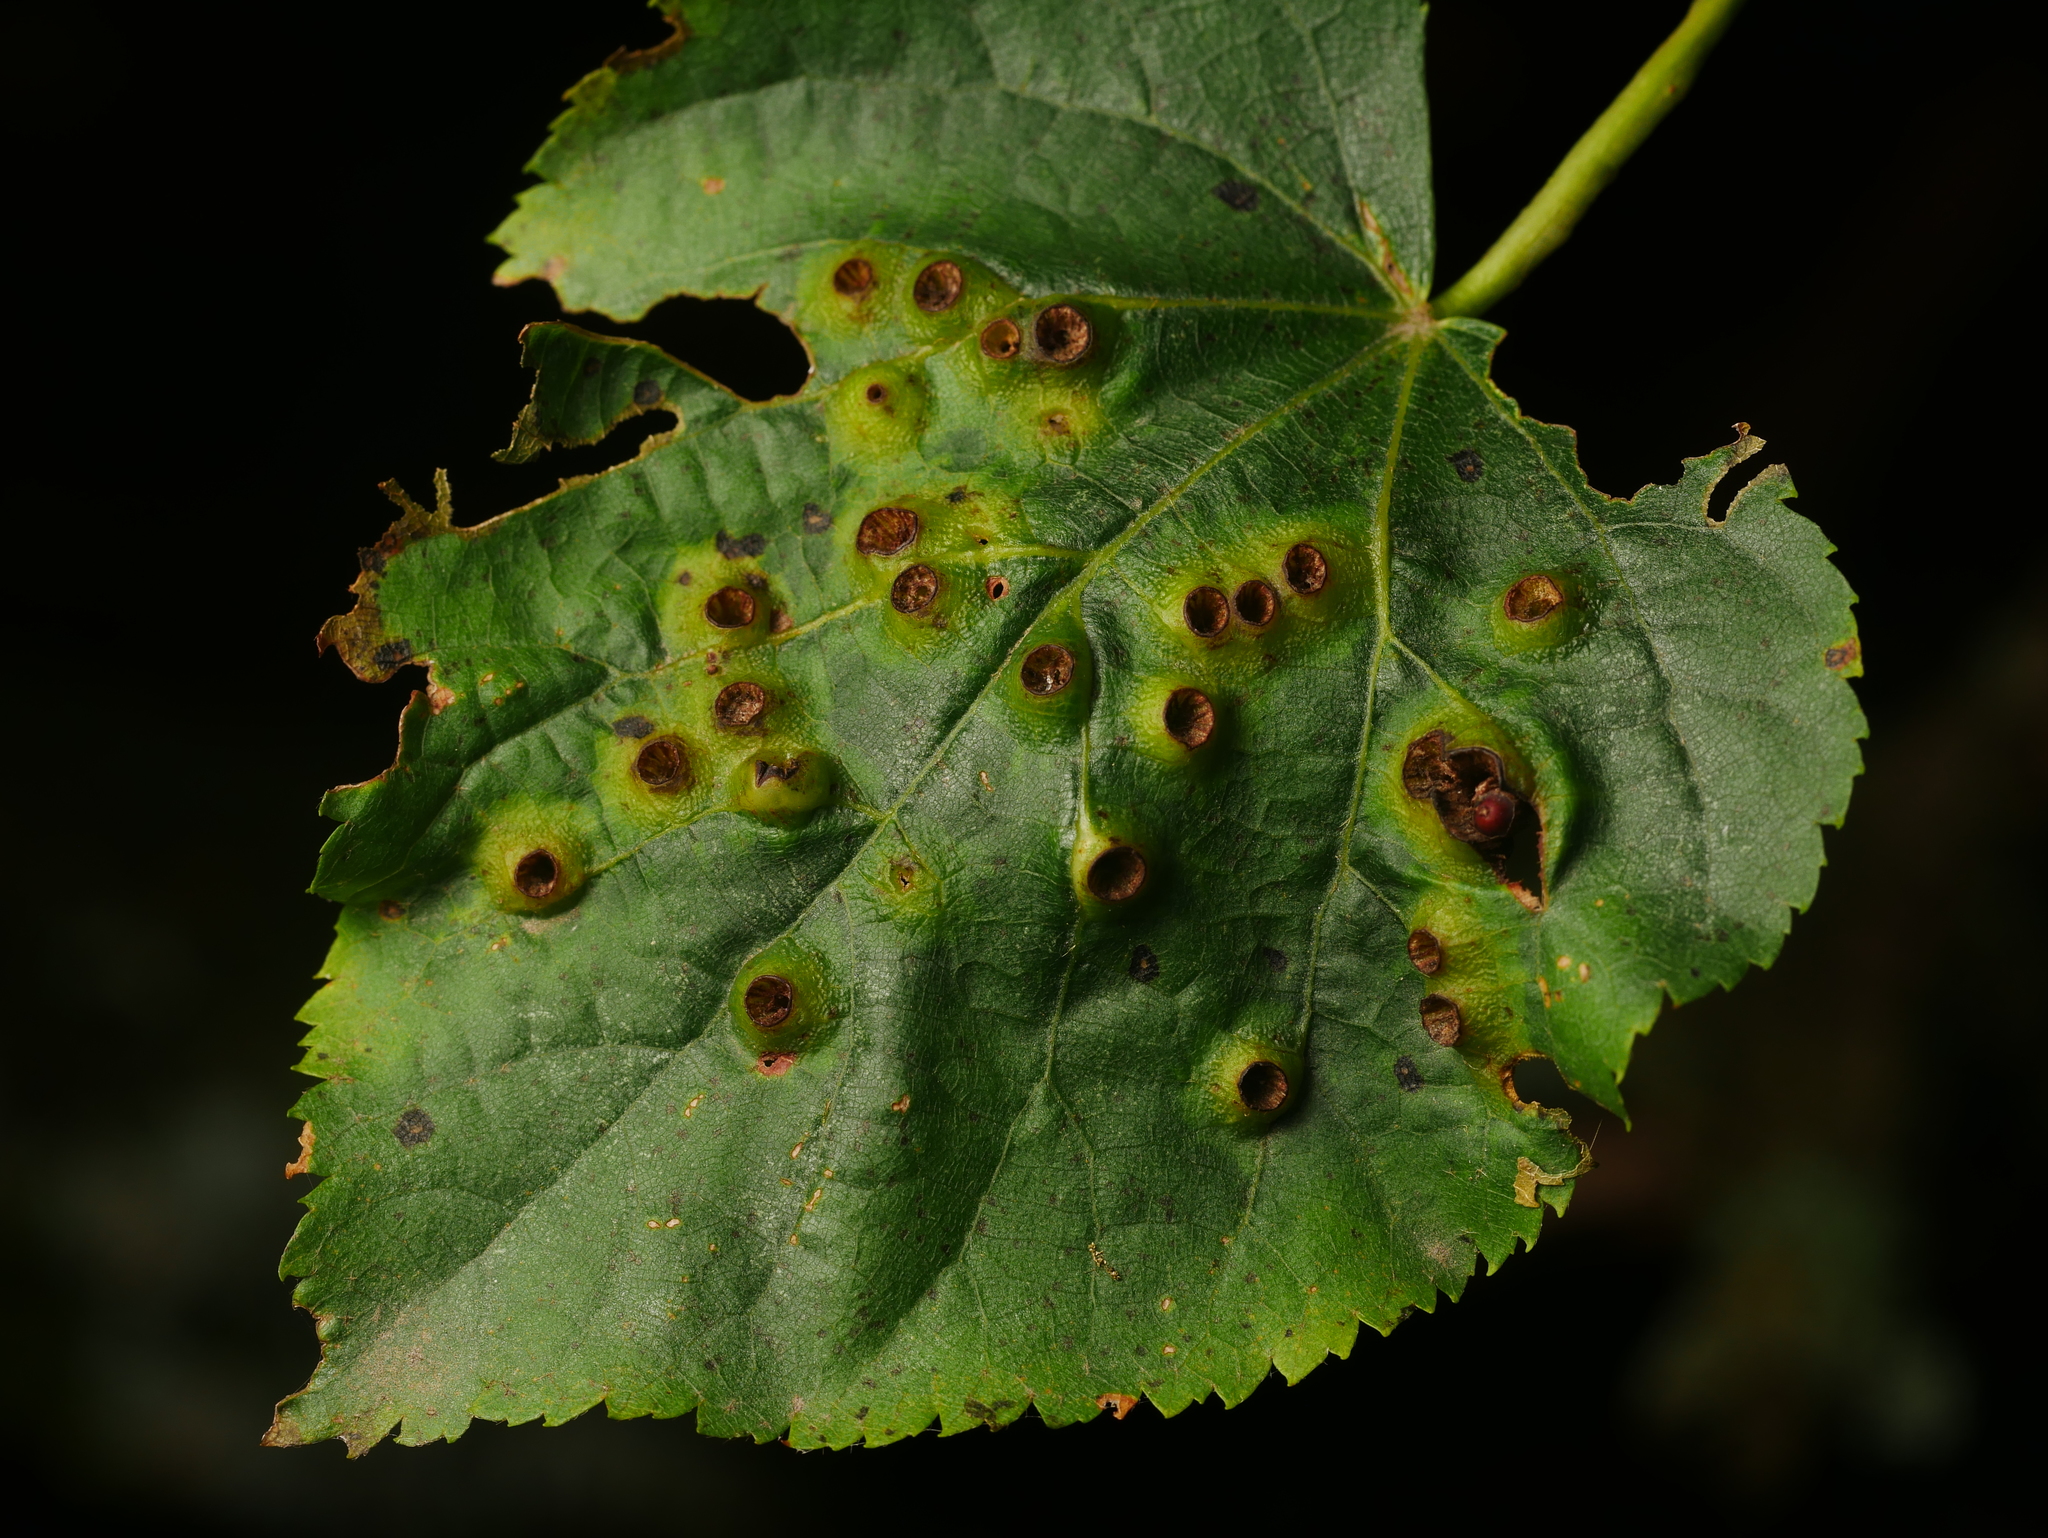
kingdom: Animalia
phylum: Arthropoda
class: Insecta
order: Diptera
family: Cecidomyiidae
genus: Didymomyia
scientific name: Didymomyia tiliacea
